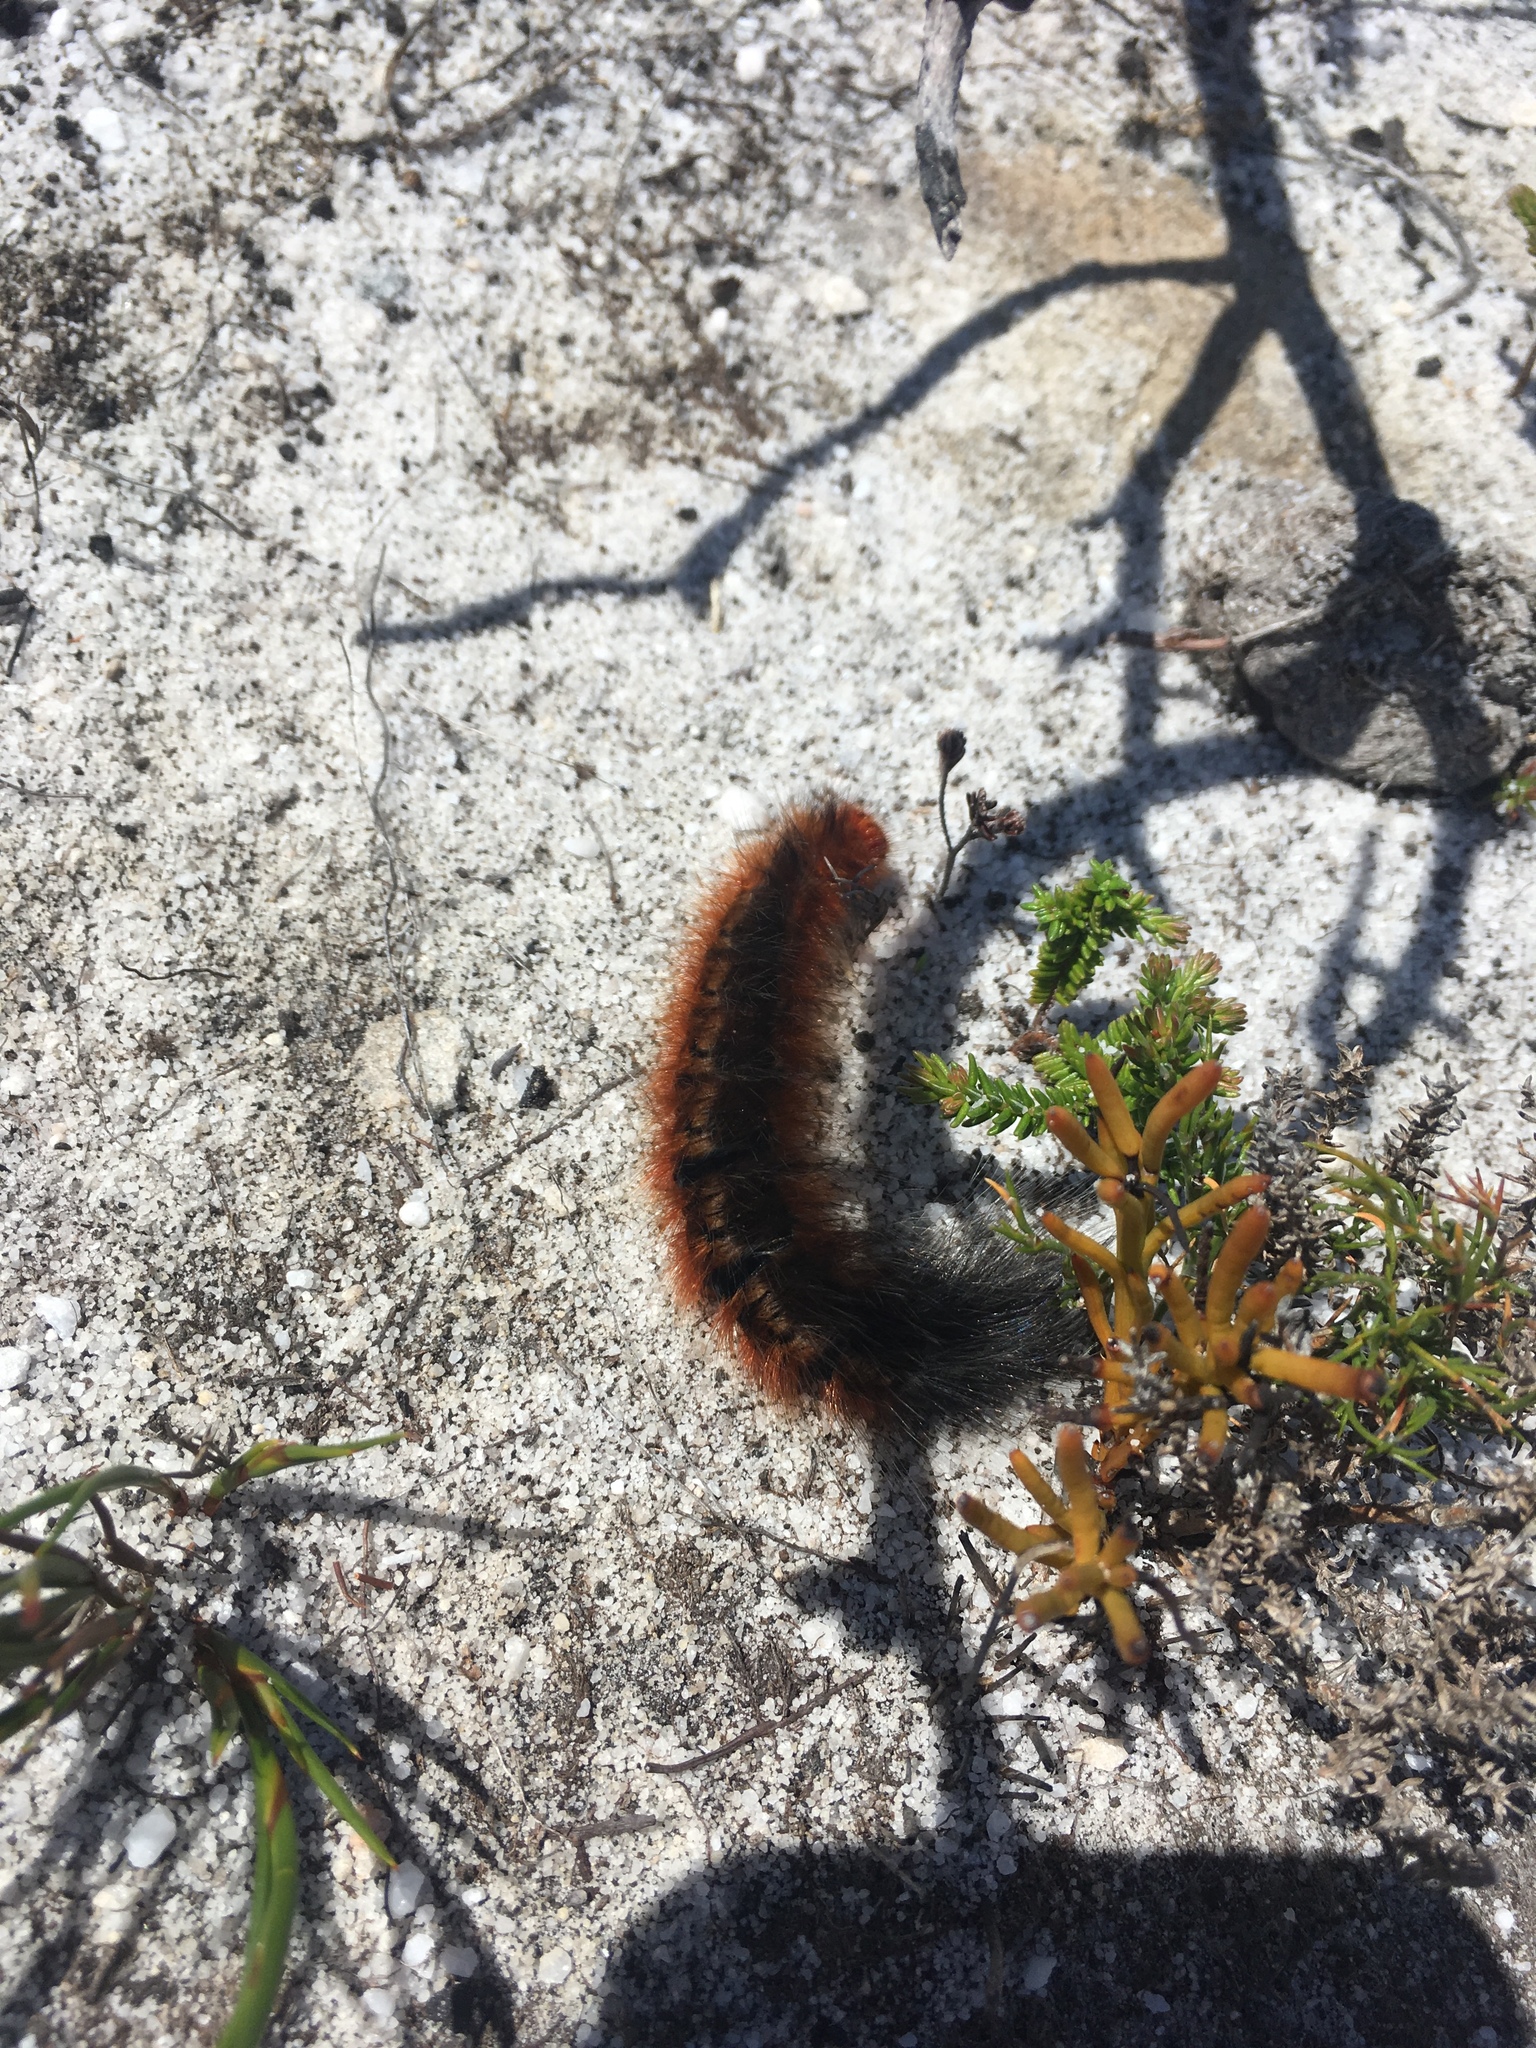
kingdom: Animalia
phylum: Arthropoda
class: Insecta
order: Lepidoptera
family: Lasiocampidae
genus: Mesocelis
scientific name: Mesocelis monticola
